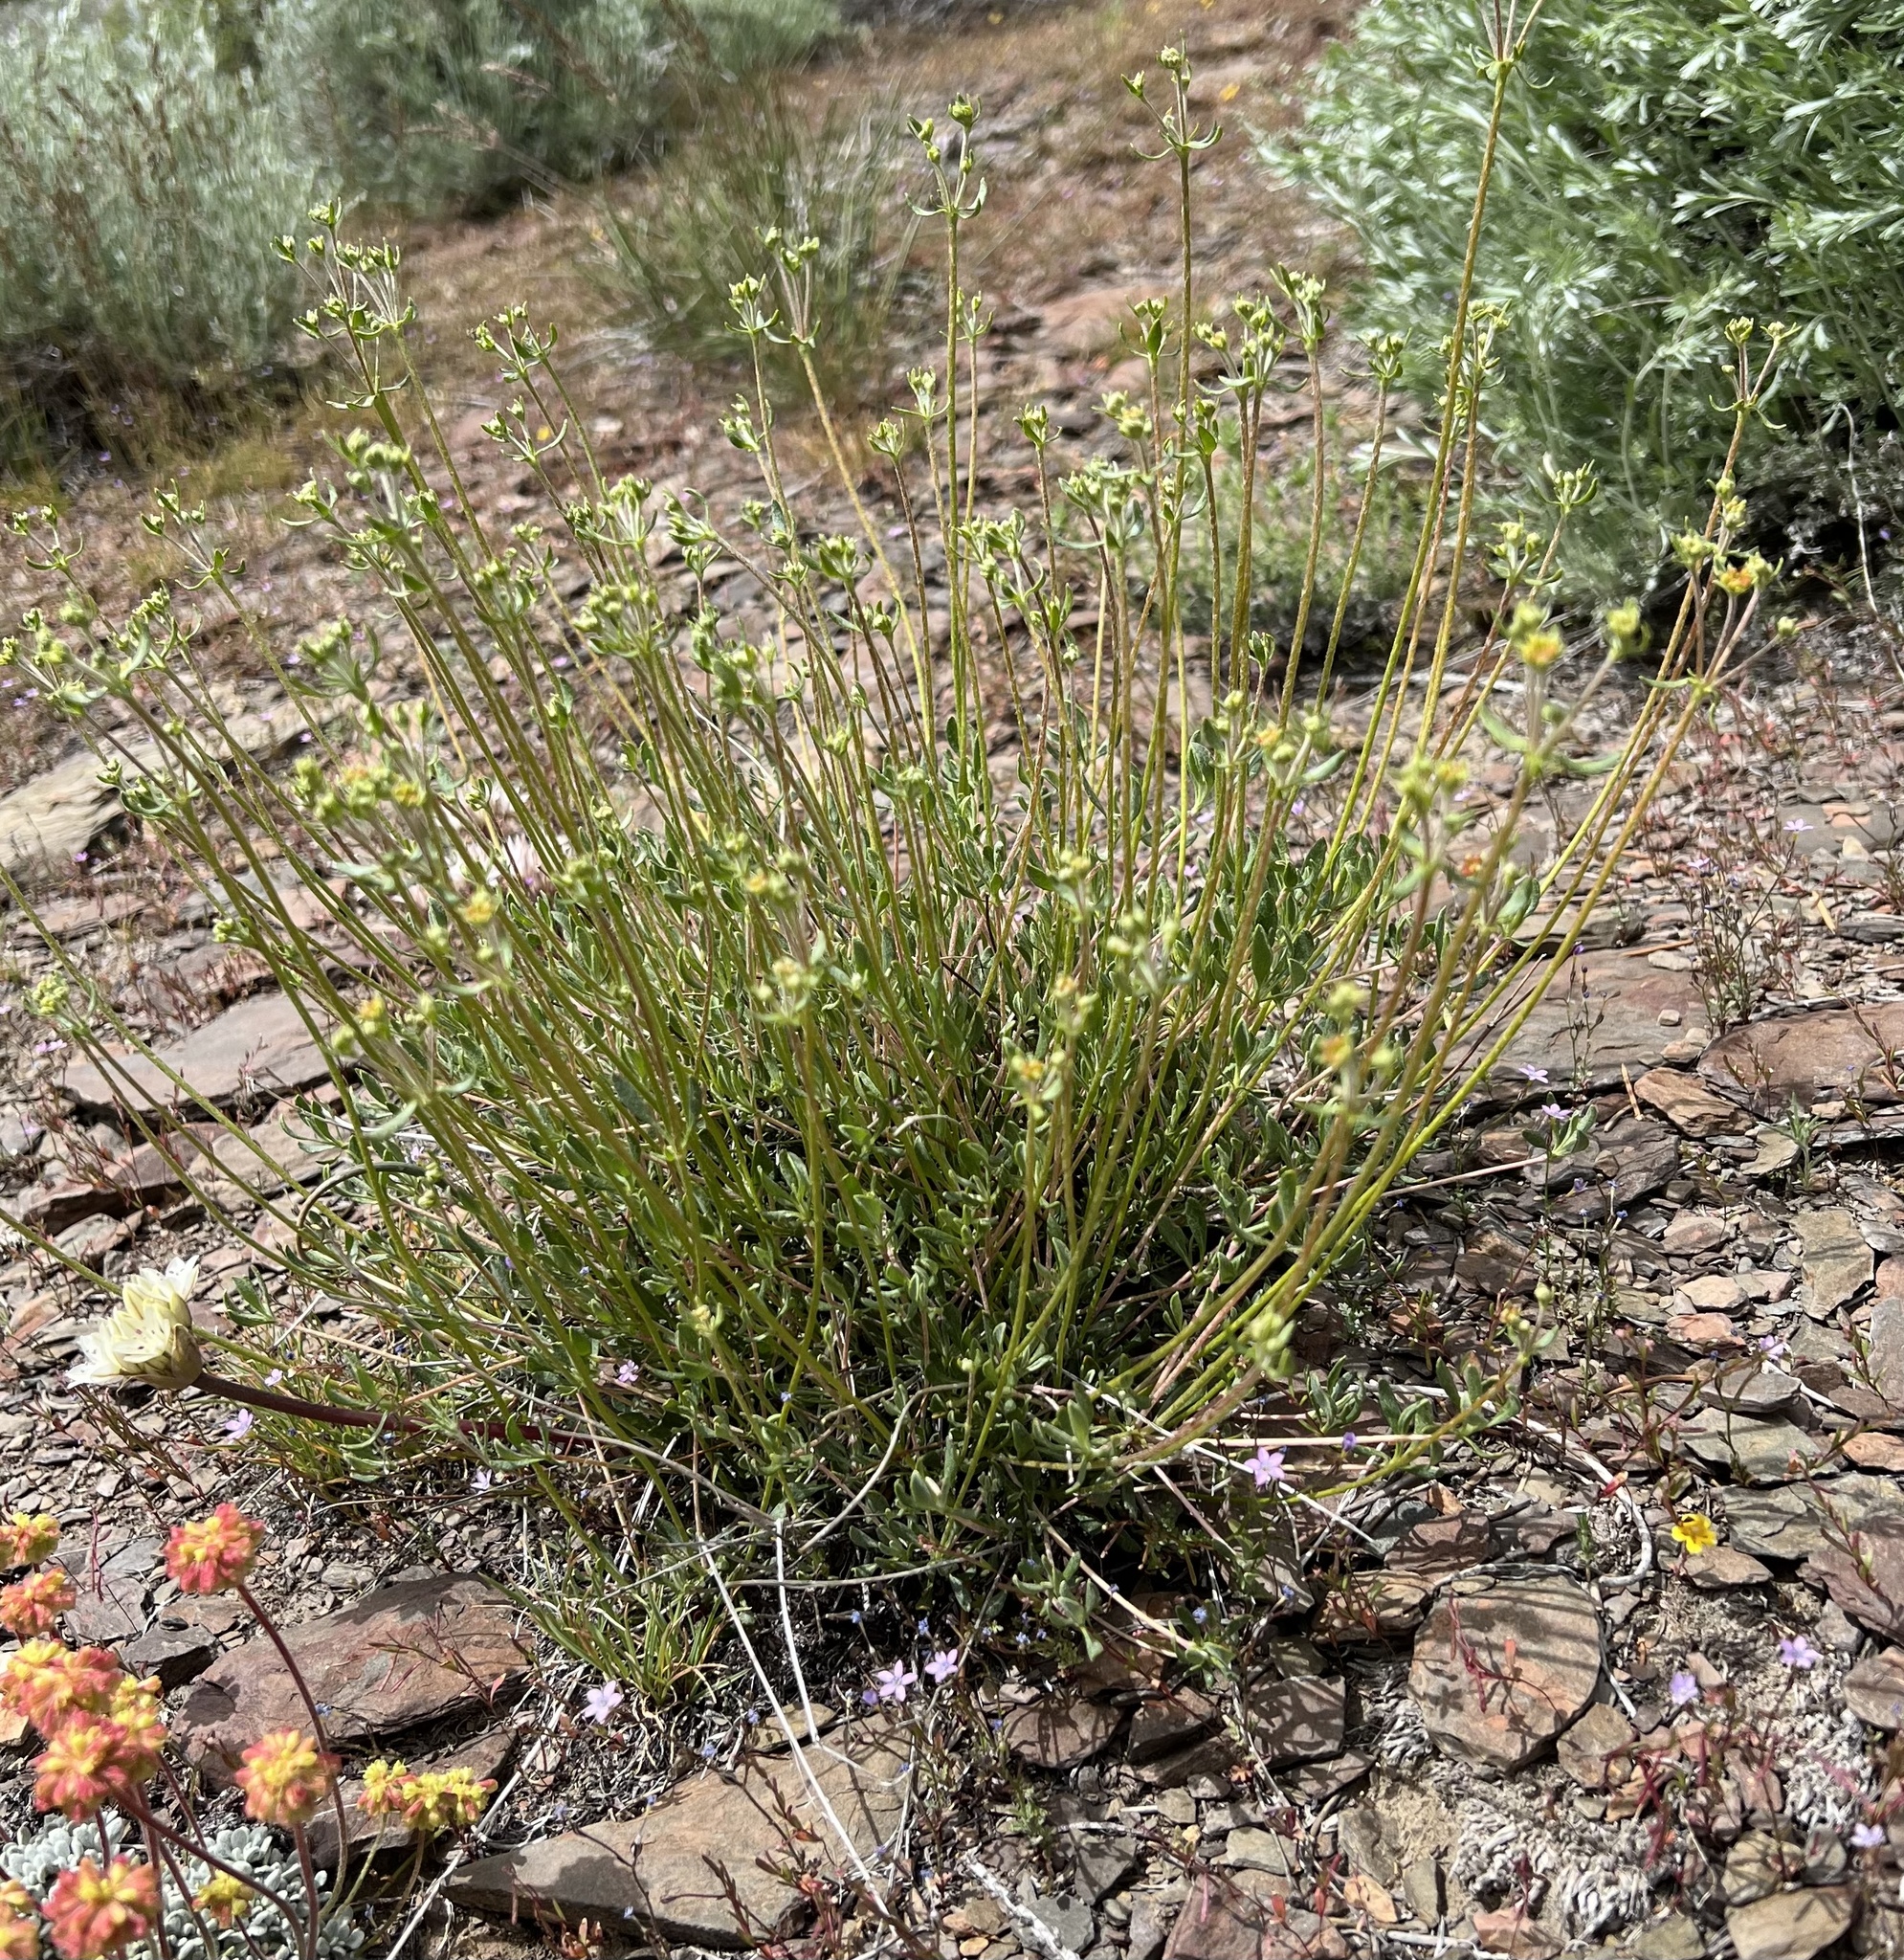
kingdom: Plantae
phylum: Tracheophyta
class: Magnoliopsida
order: Caryophyllales
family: Polygonaceae
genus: Eriogonum
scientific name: Eriogonum umbellatum
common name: Sulfur-buckwheat
